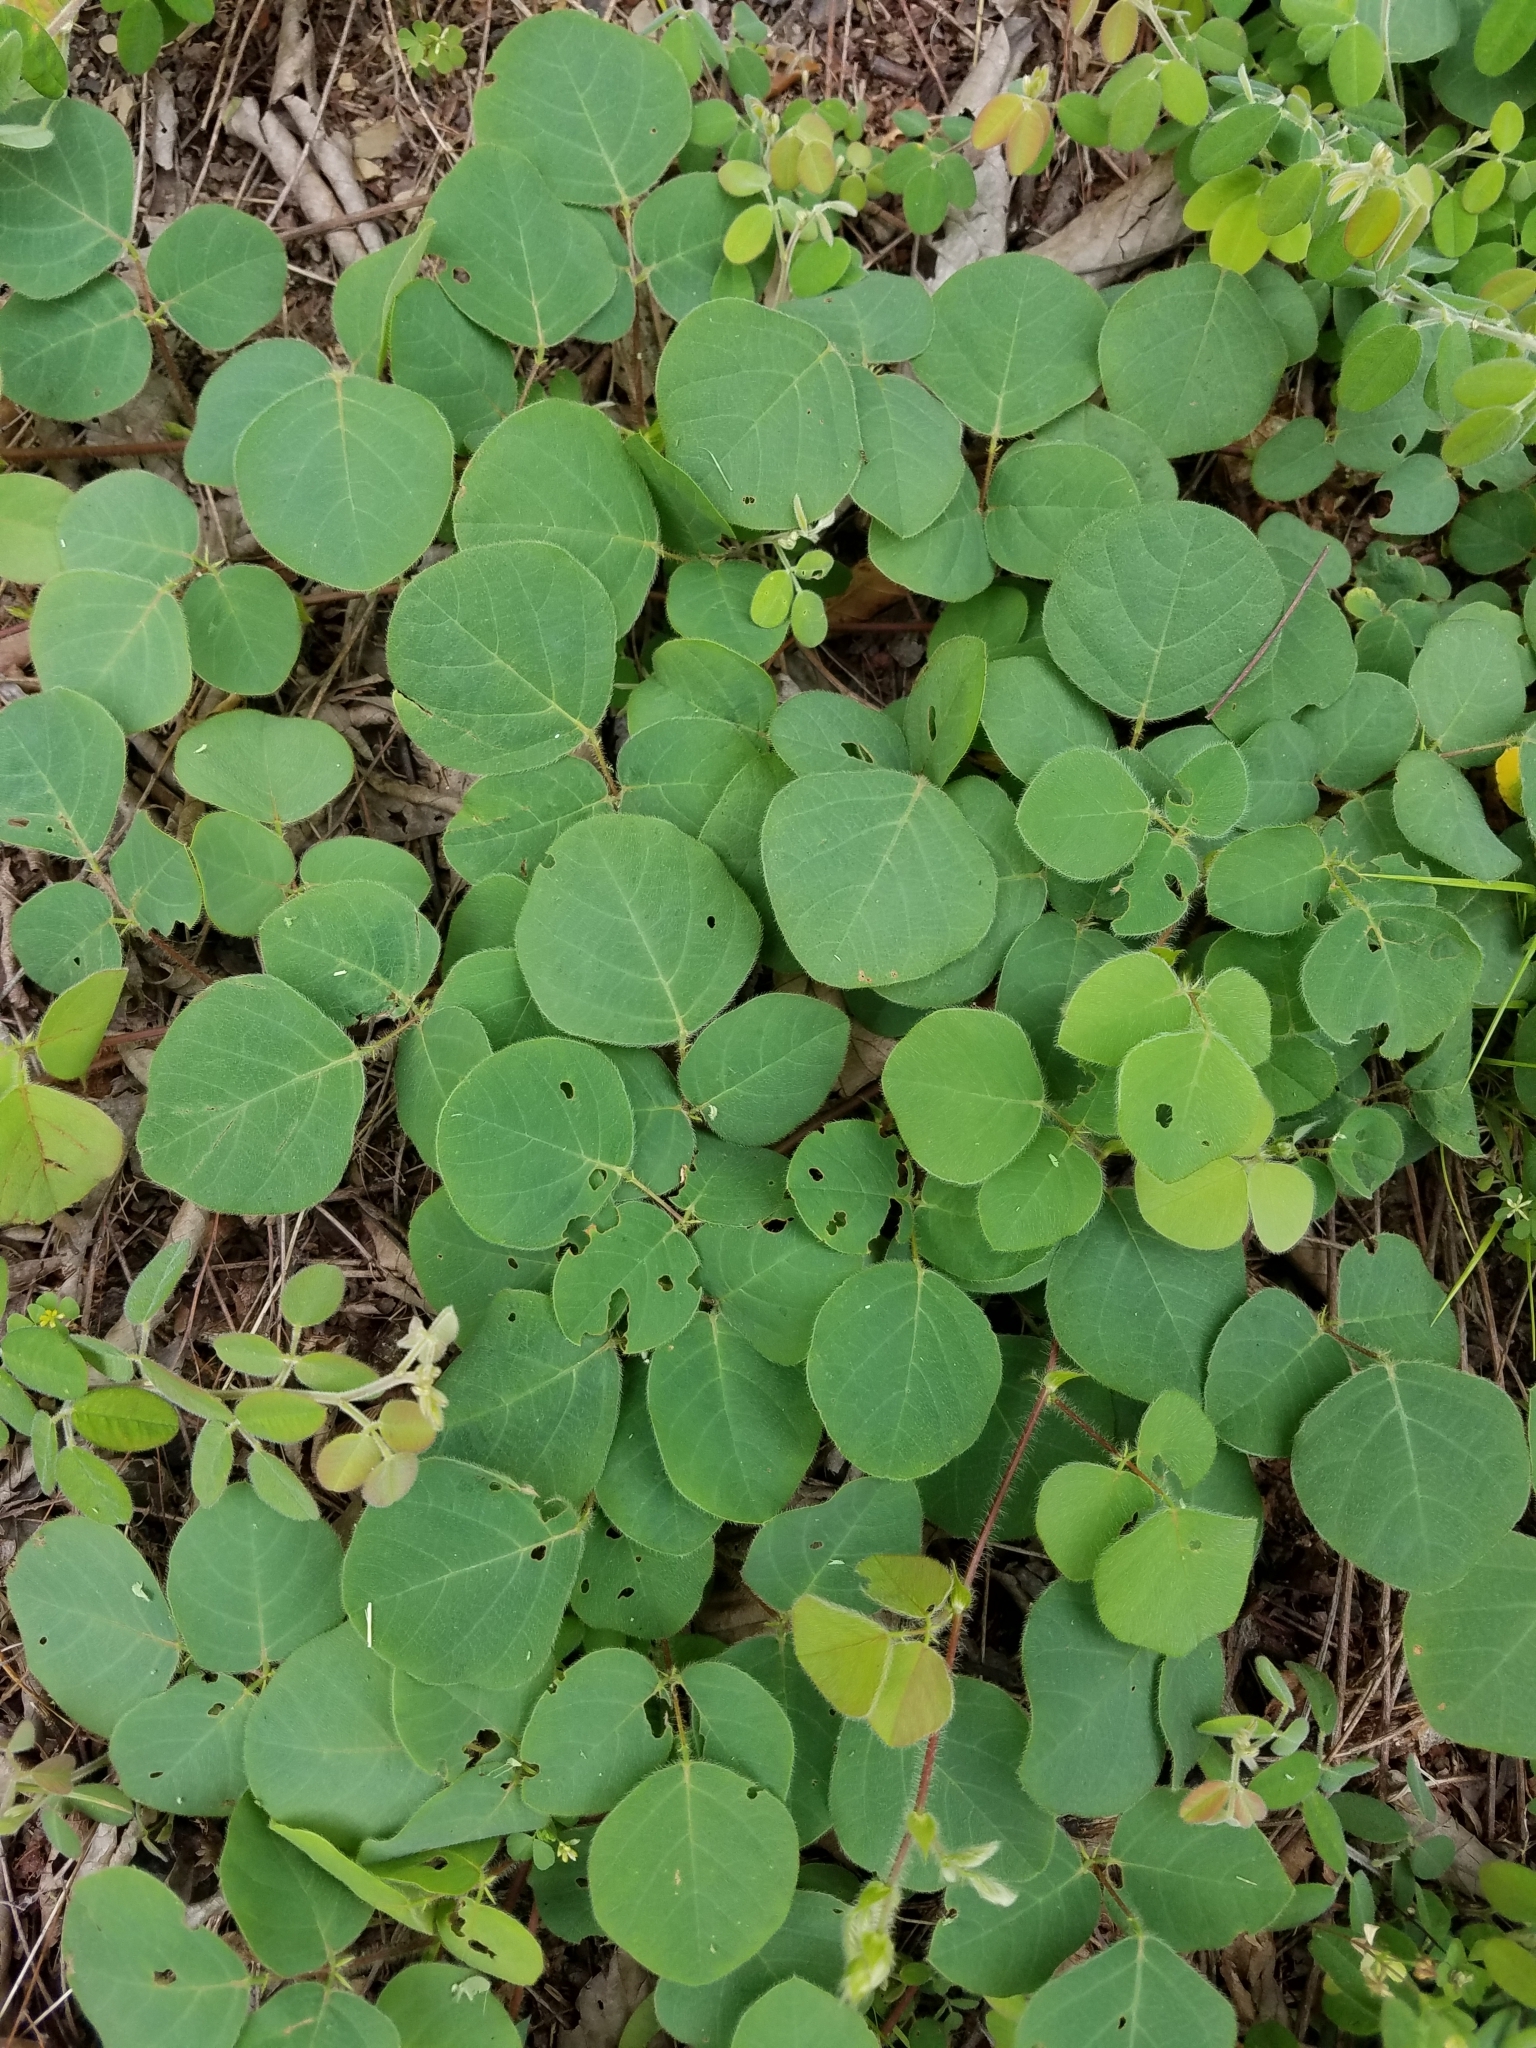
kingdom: Plantae
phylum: Tracheophyta
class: Magnoliopsida
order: Fabales
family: Fabaceae
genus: Desmodium
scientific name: Desmodium rotundifolium
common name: Dollarleaf
